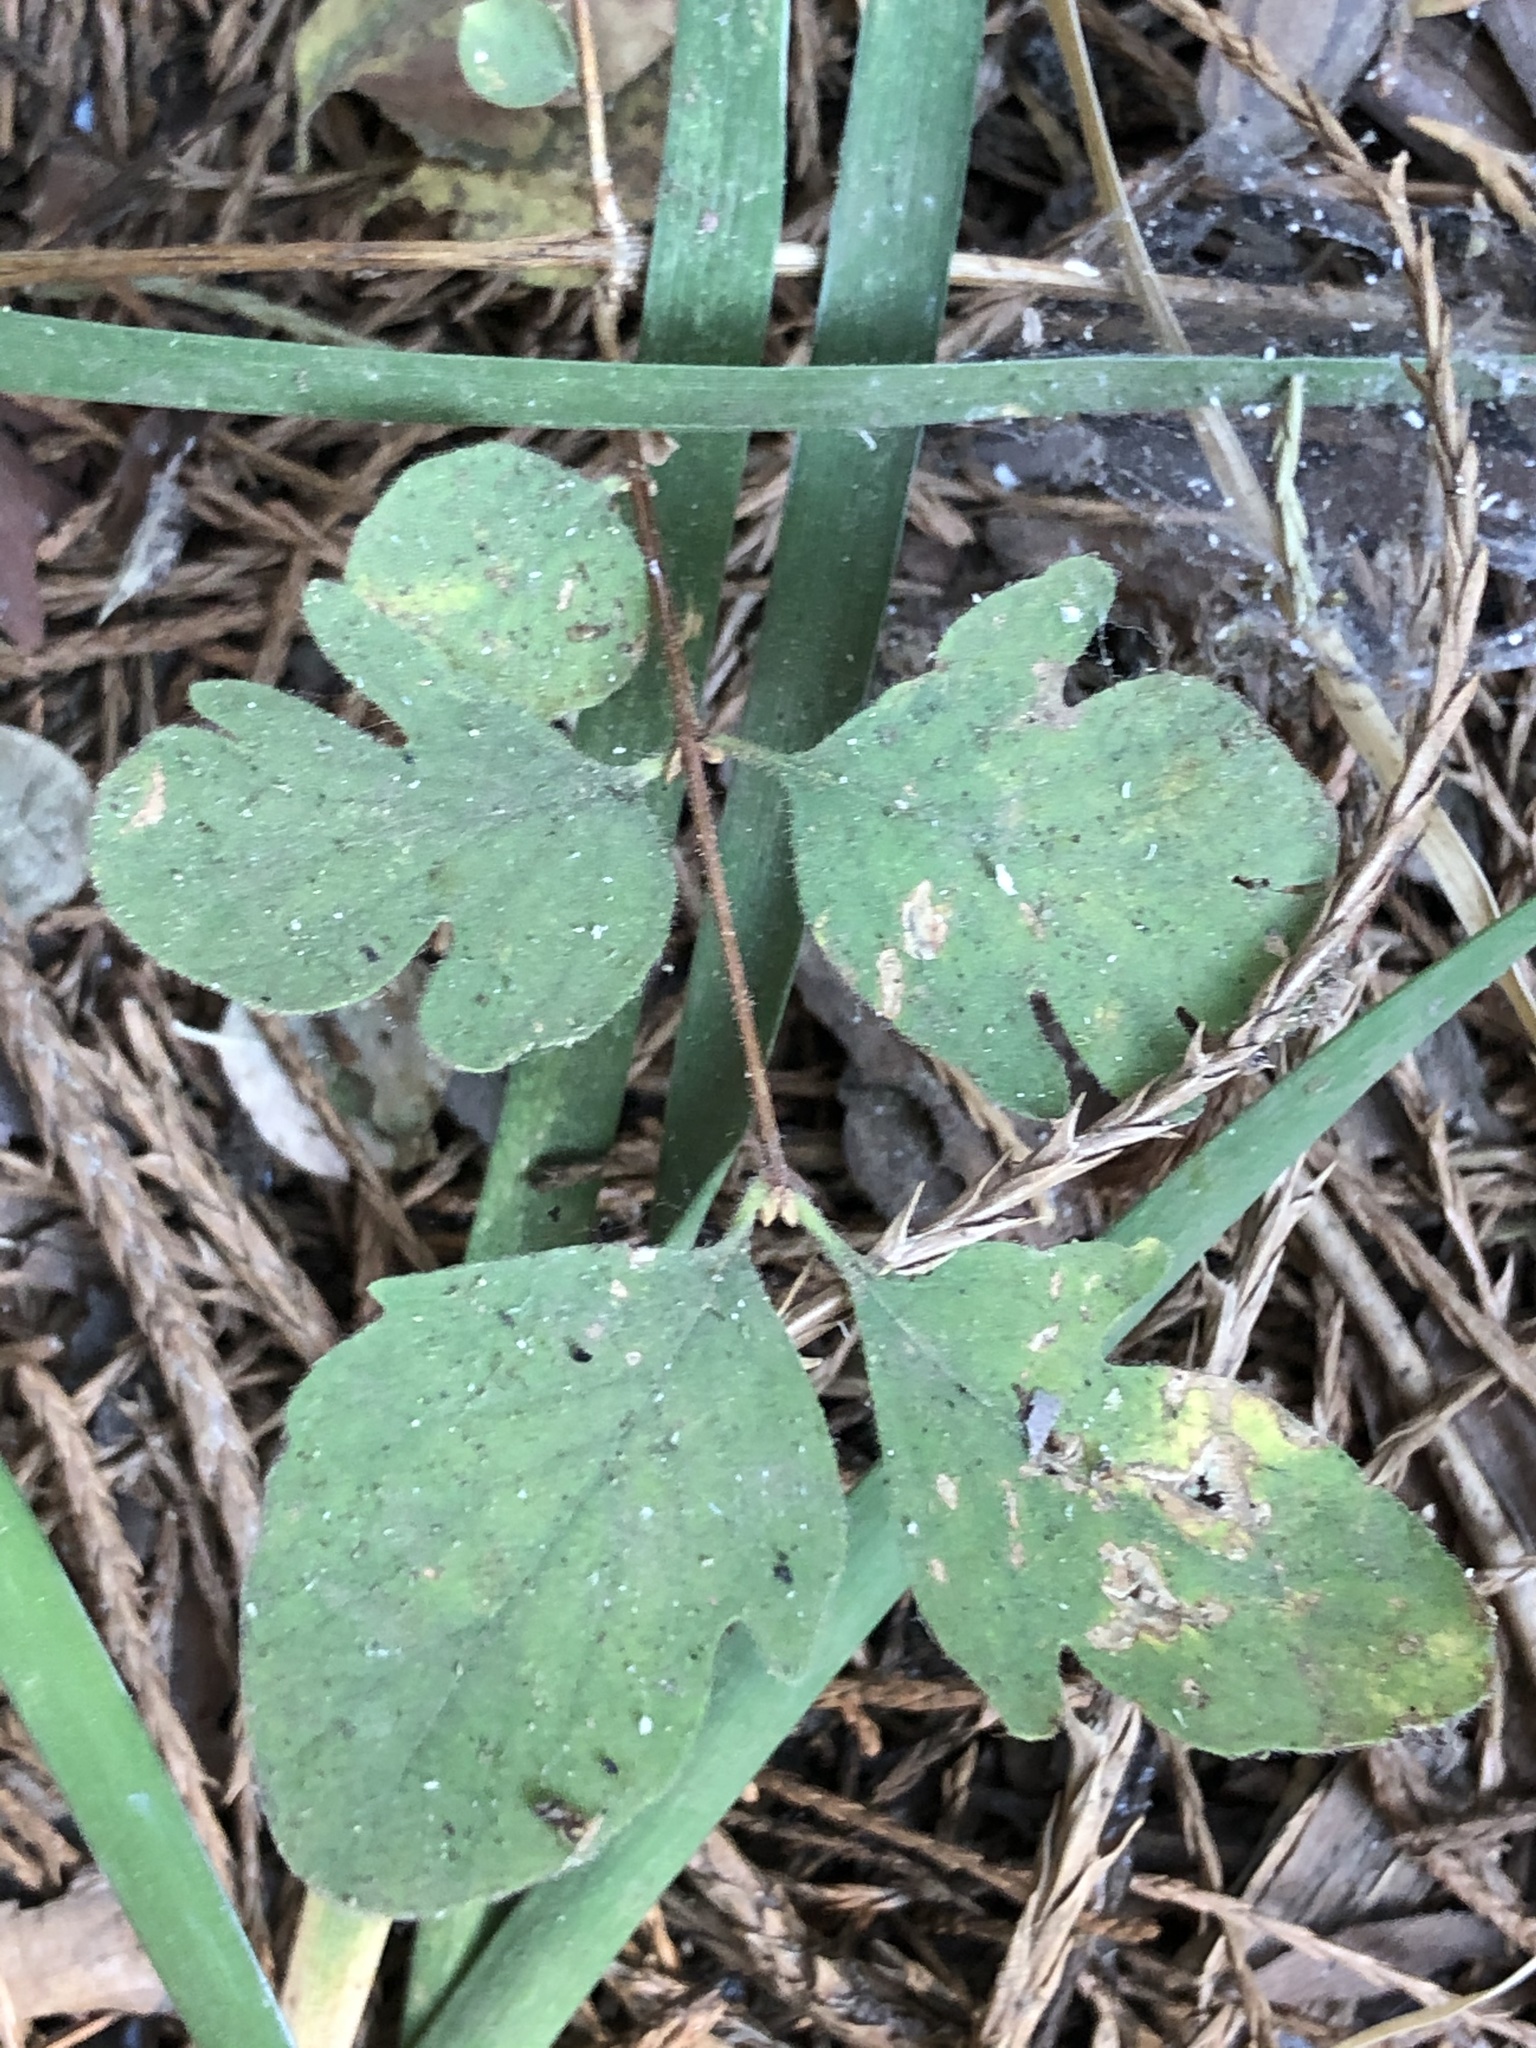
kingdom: Plantae
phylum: Tracheophyta
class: Magnoliopsida
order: Dipsacales
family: Caprifoliaceae
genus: Symphoricarpos
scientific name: Symphoricarpos mollis
